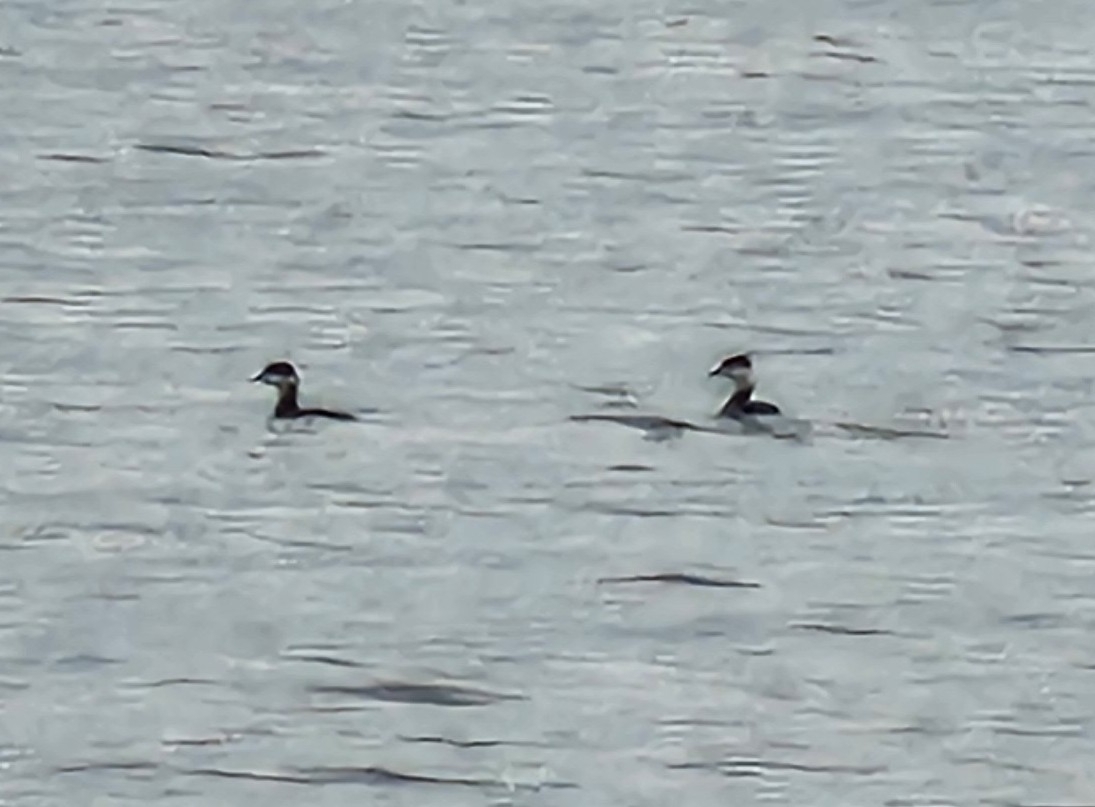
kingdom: Animalia
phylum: Chordata
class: Aves
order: Podicipediformes
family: Podicipedidae
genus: Podiceps
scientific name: Podiceps auritus
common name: Horned grebe
